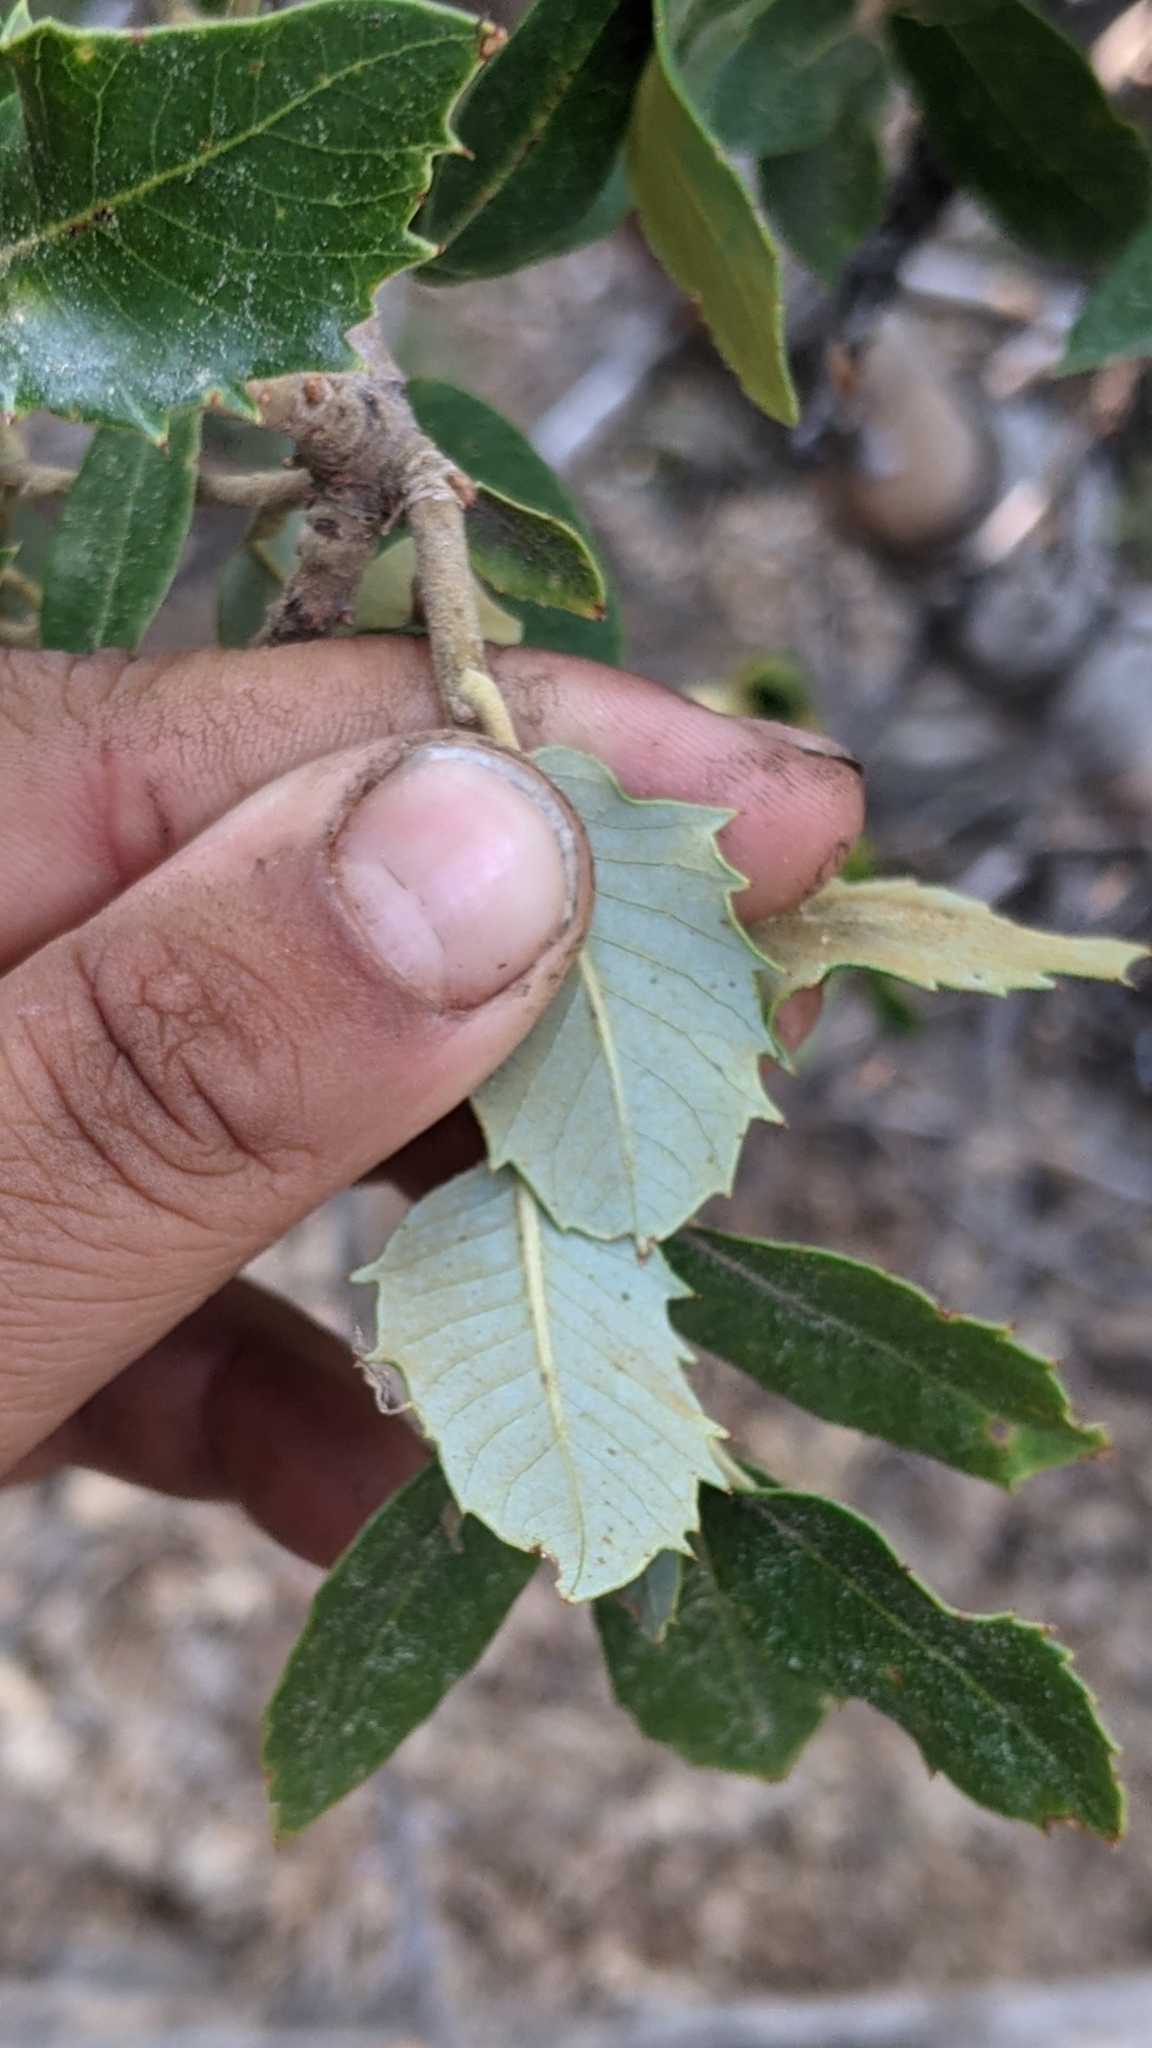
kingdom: Plantae
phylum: Tracheophyta
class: Magnoliopsida
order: Fagales
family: Fagaceae
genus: Quercus
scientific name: Quercus chrysolepis
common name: Canyon live oak
